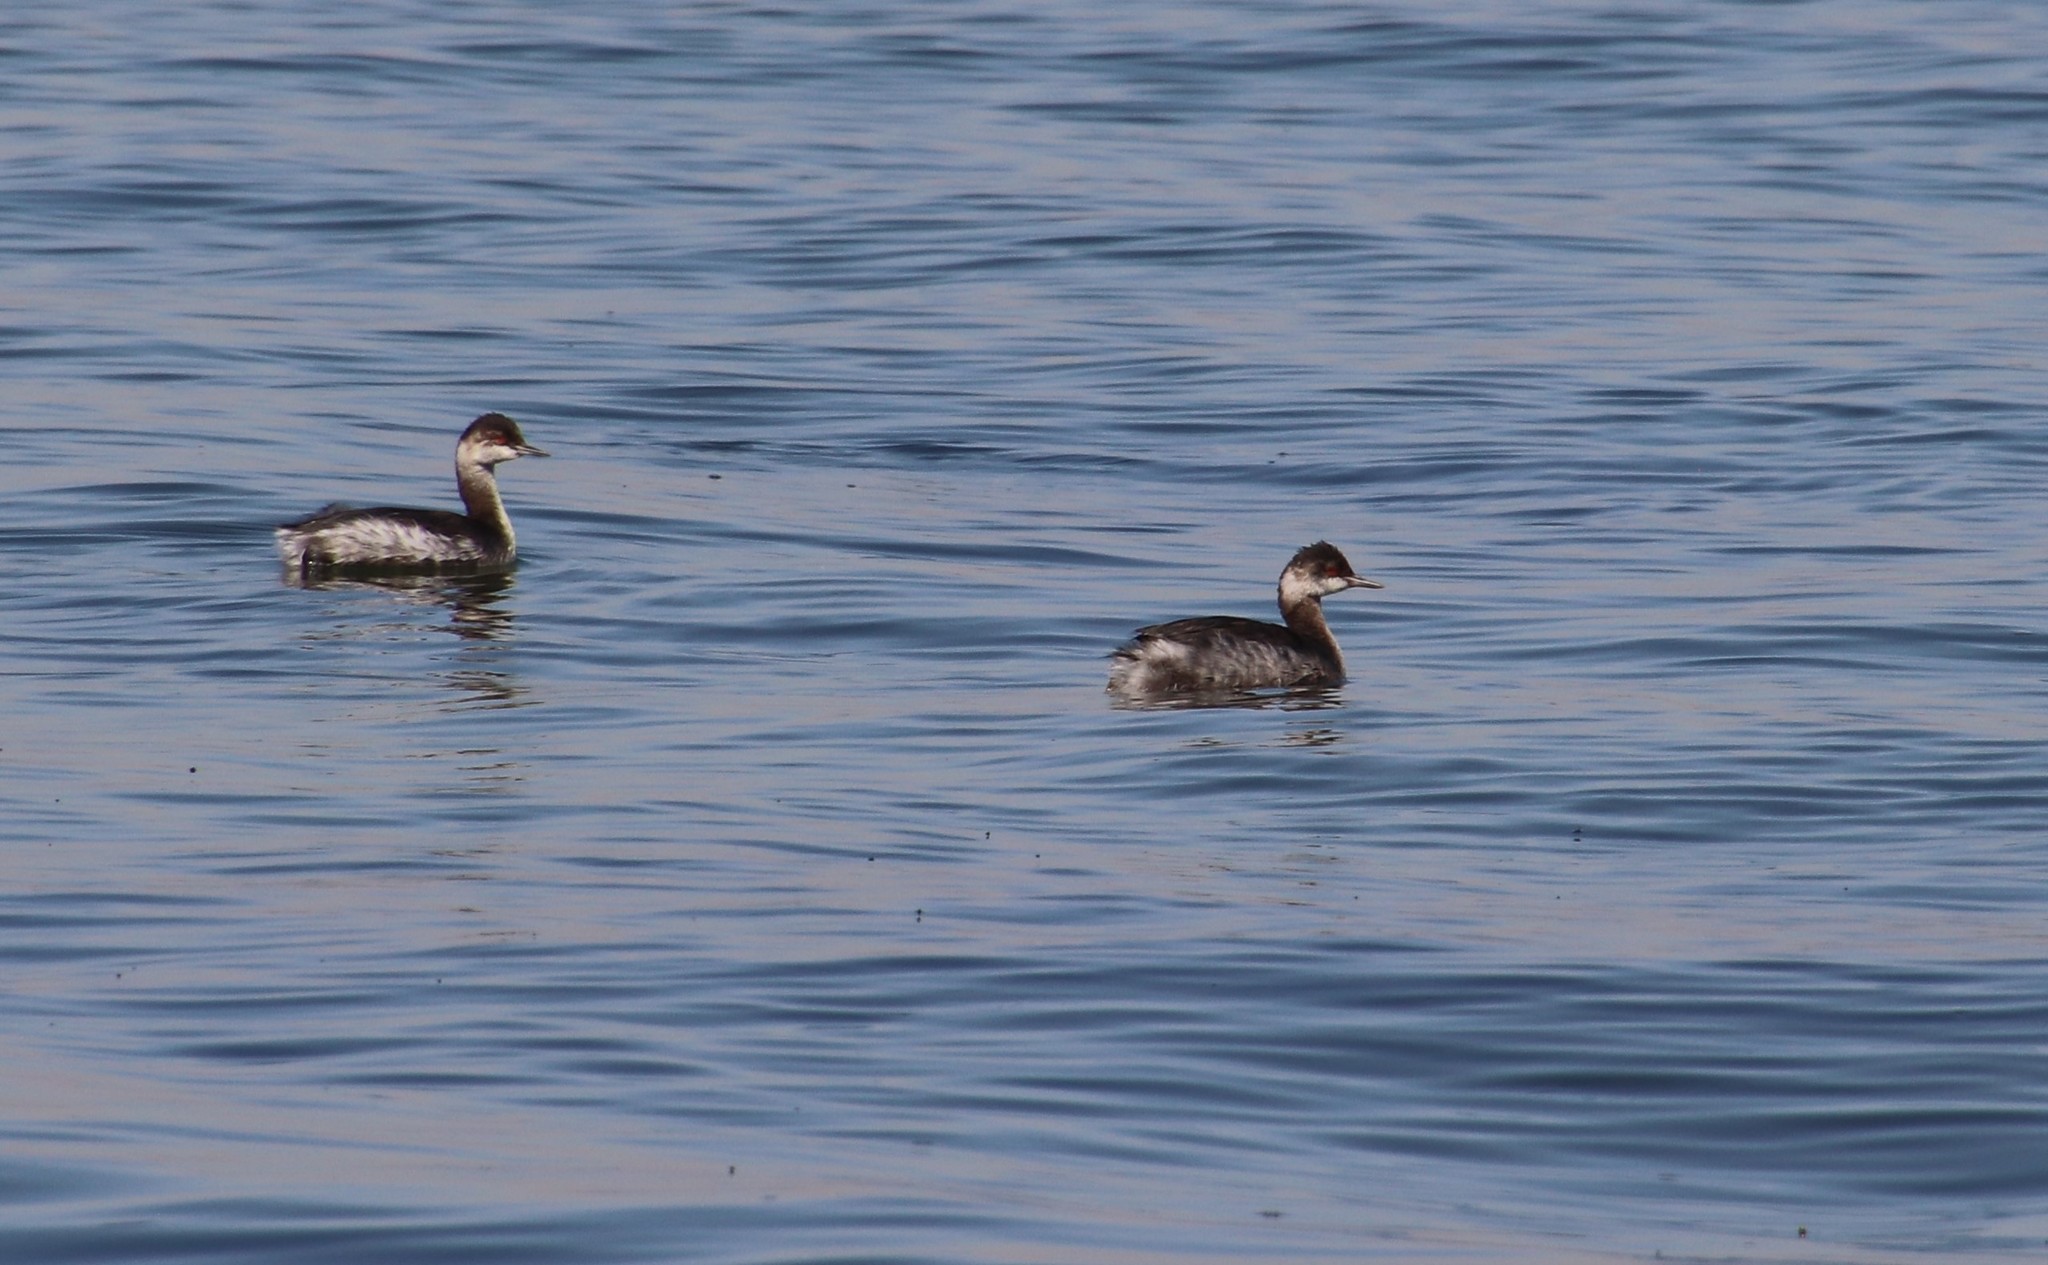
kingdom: Animalia
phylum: Chordata
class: Aves
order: Podicipediformes
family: Podicipedidae
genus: Podiceps
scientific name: Podiceps nigricollis
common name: Black-necked grebe
